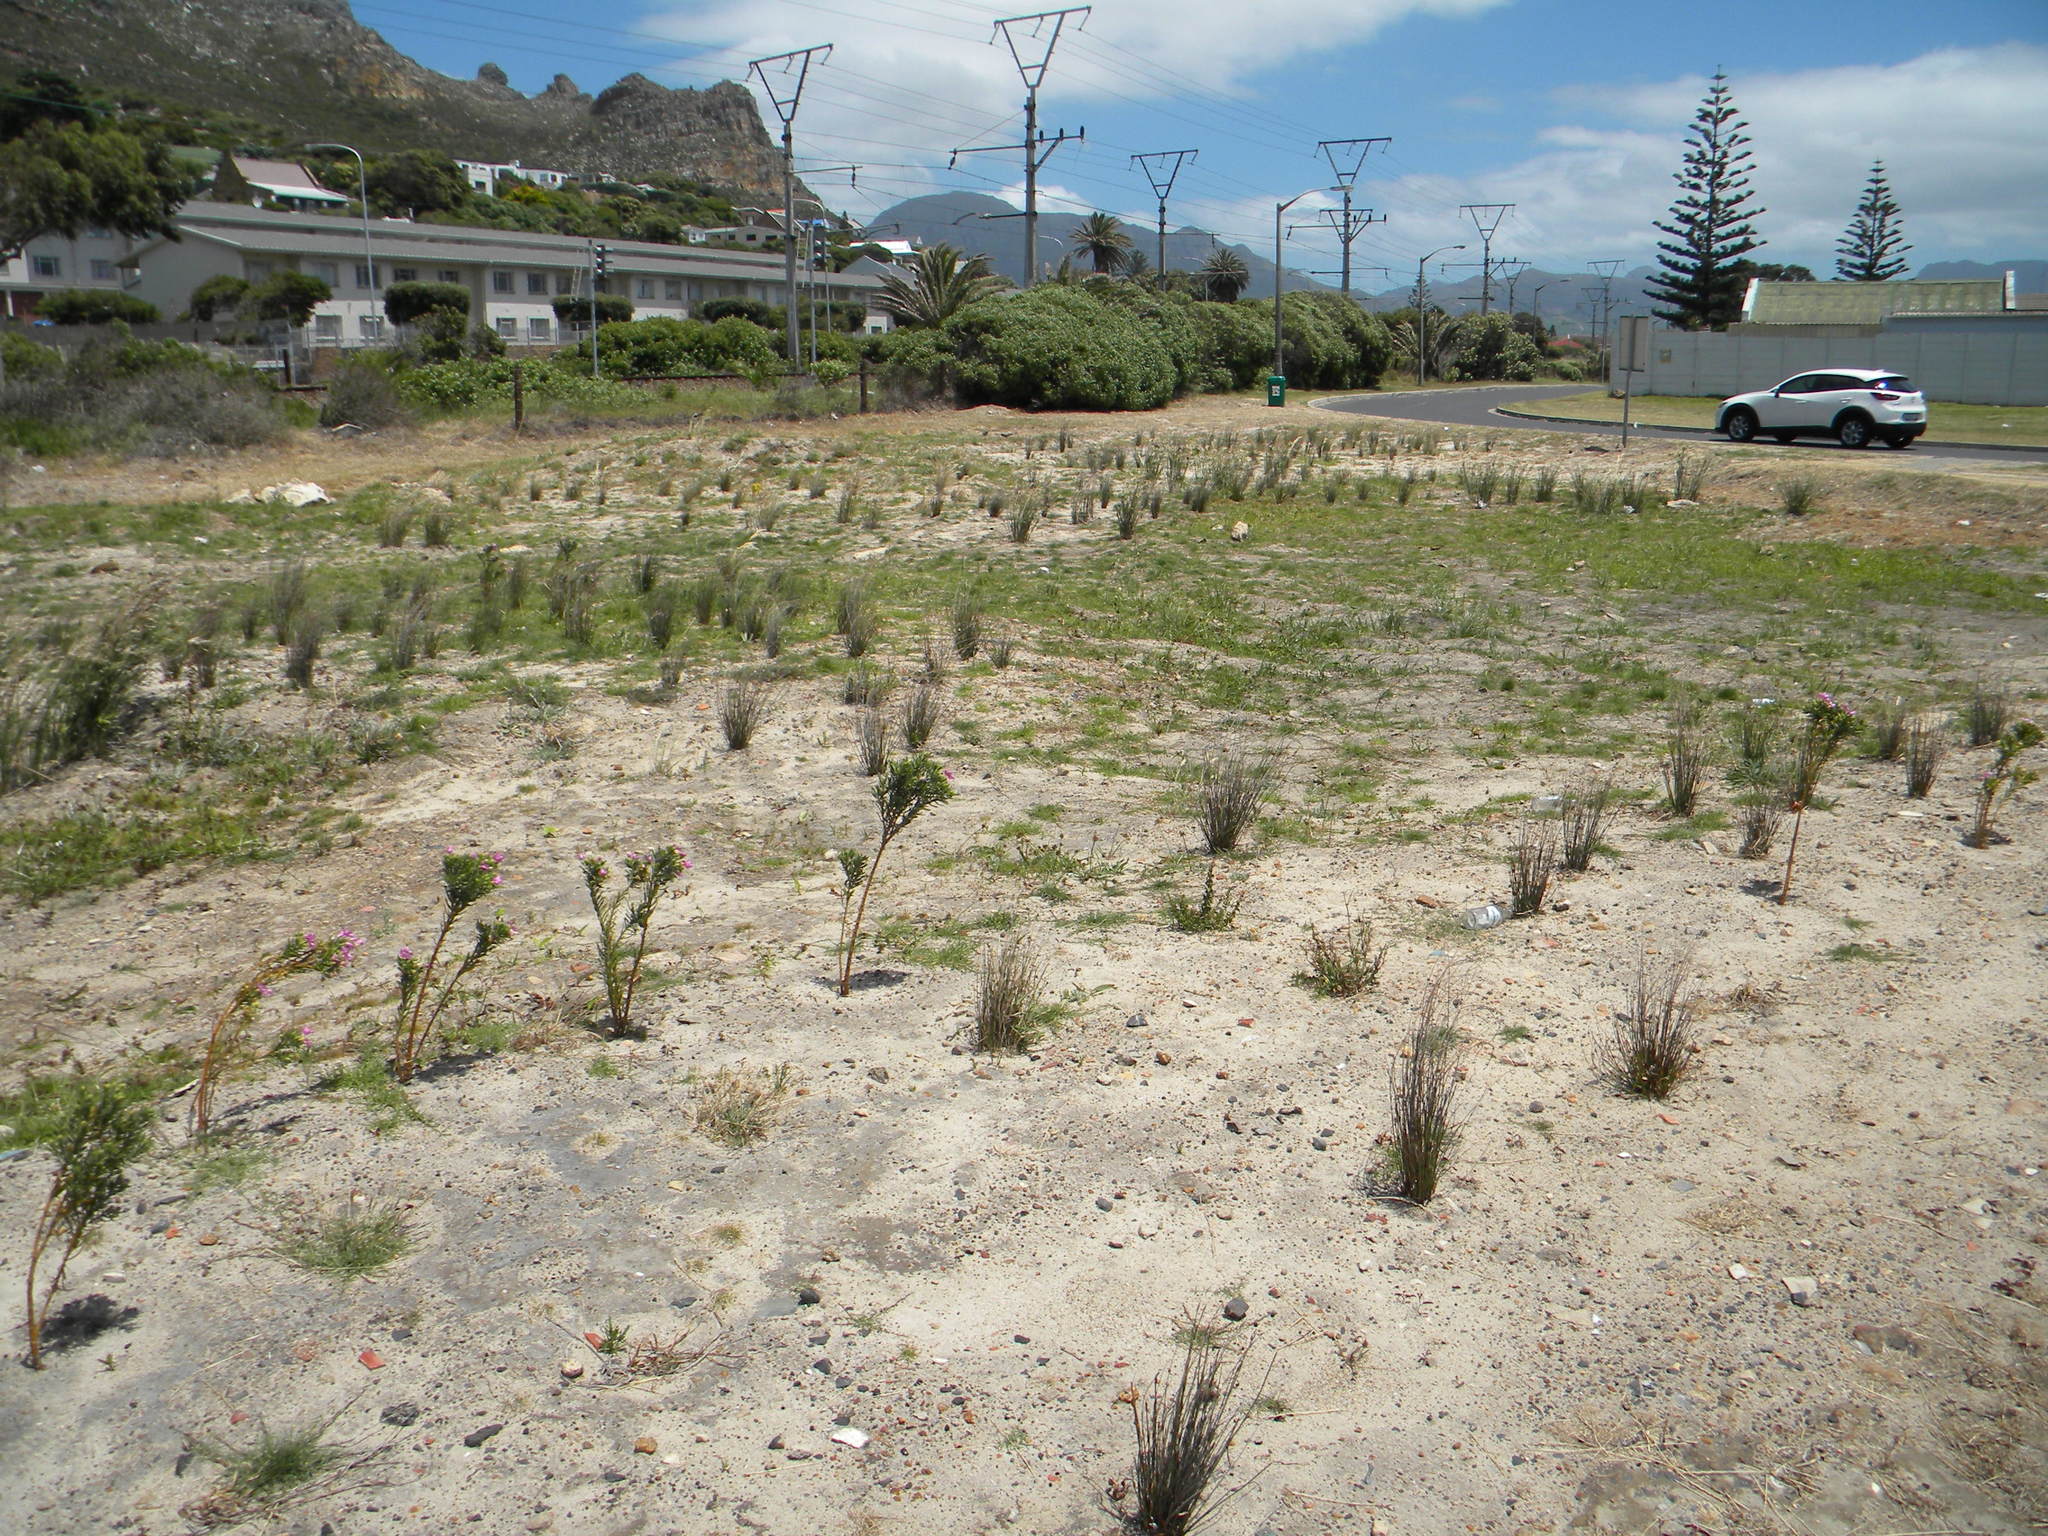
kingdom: Plantae
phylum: Tracheophyta
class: Magnoliopsida
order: Gentianales
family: Gentianaceae
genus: Orphium
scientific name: Orphium frutescens
